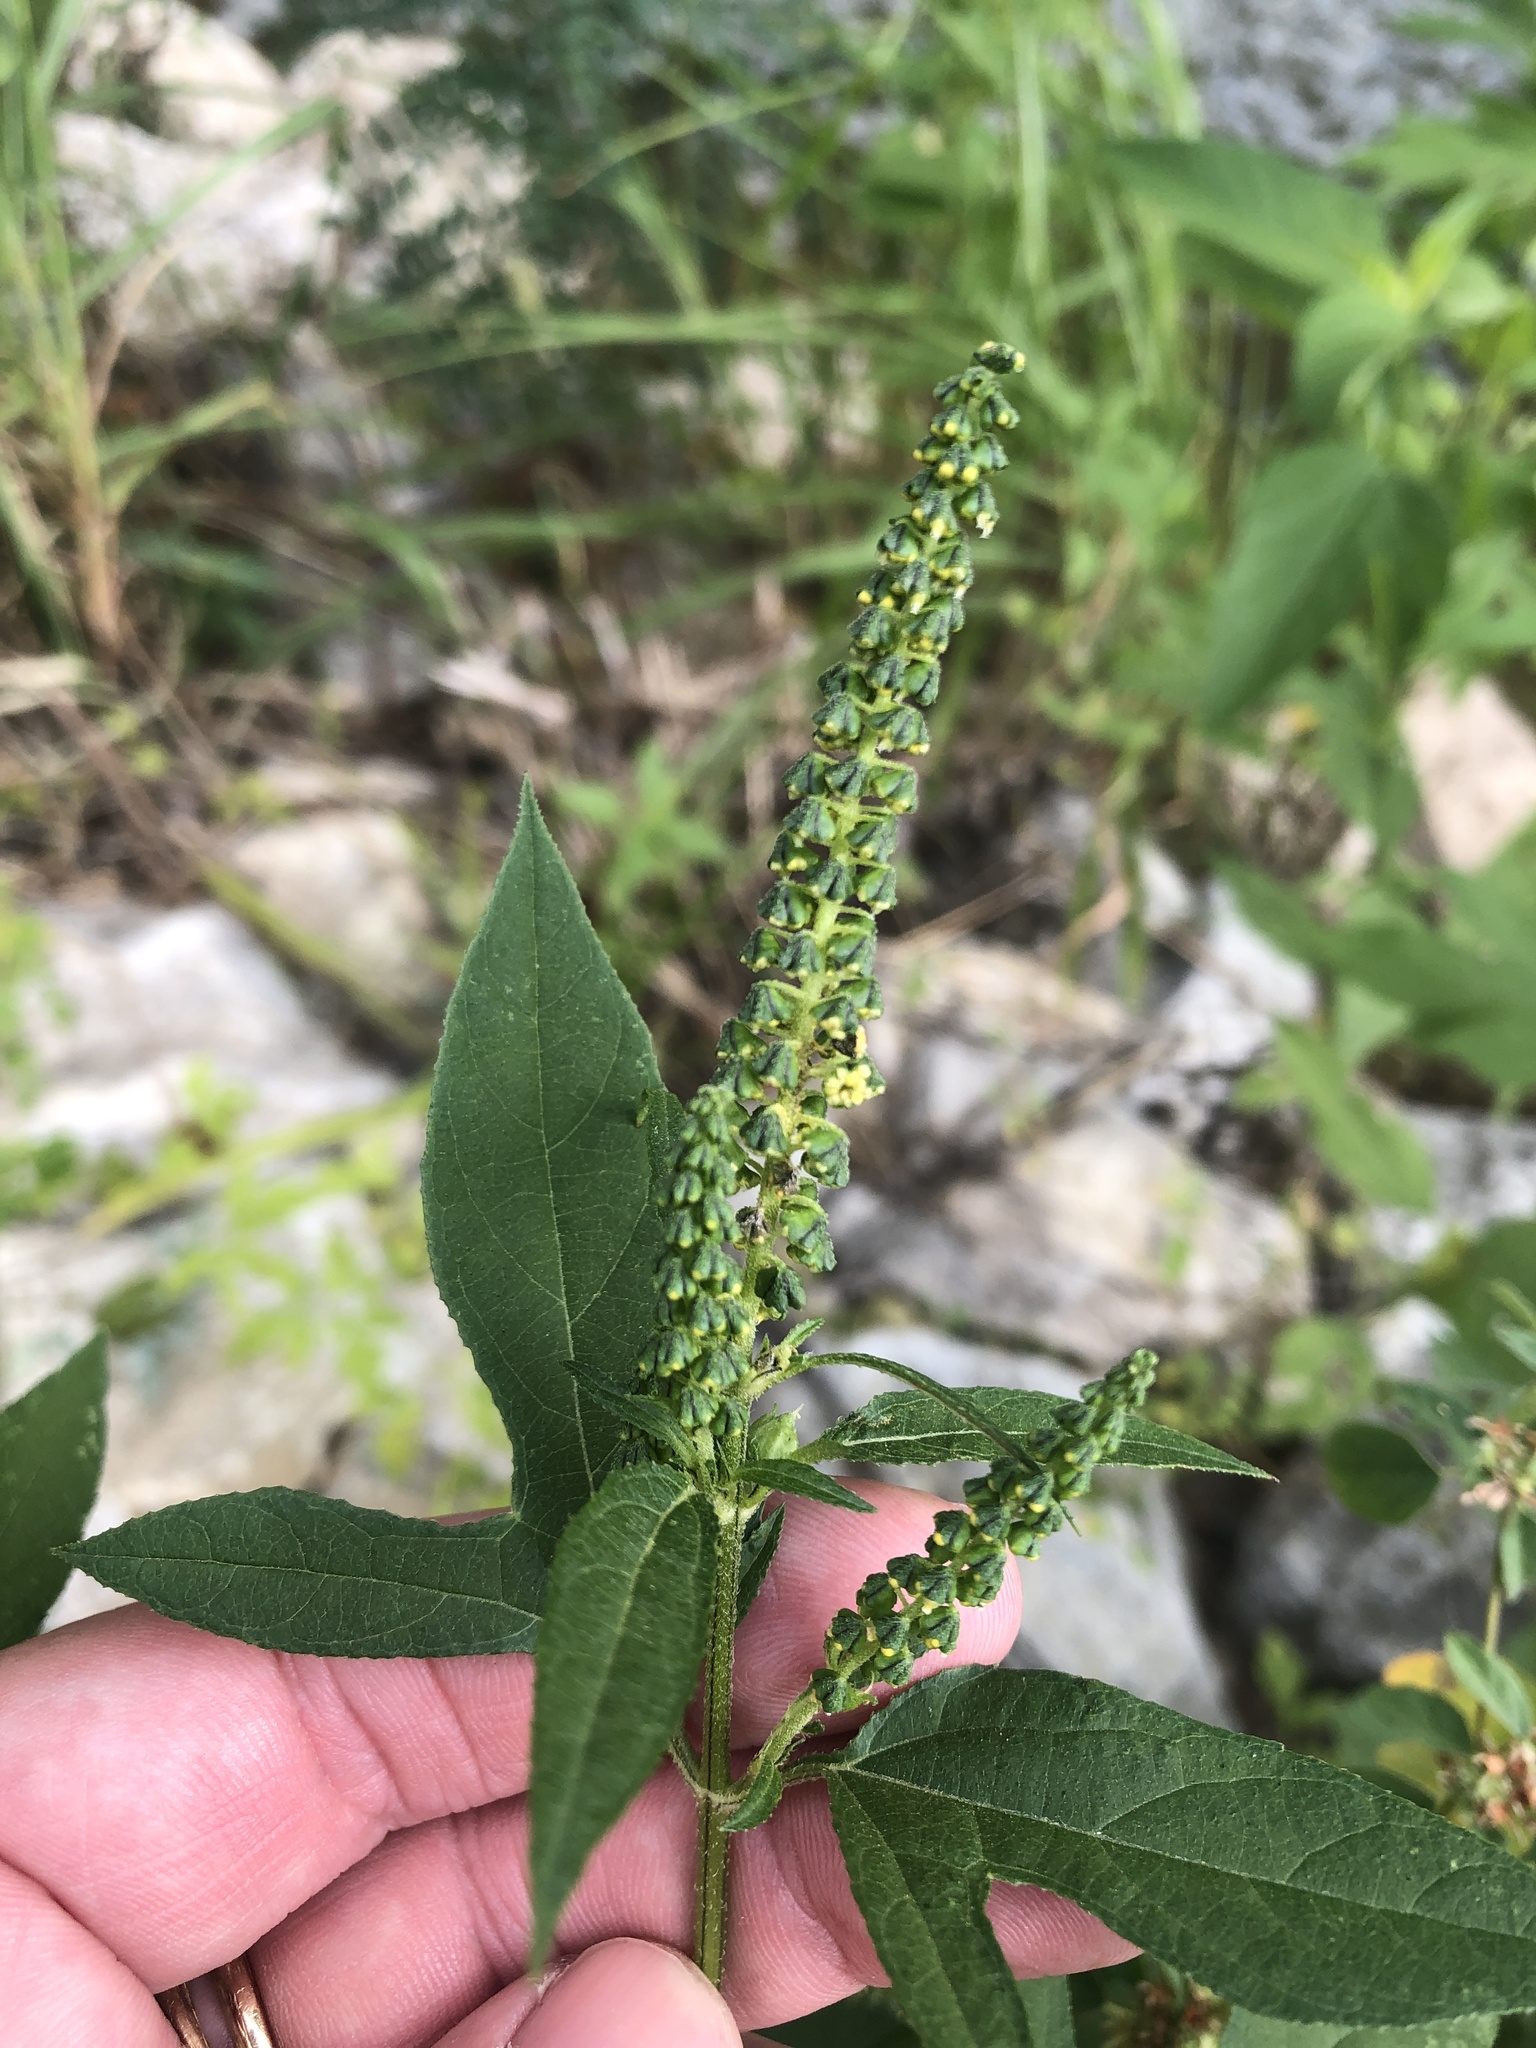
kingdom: Plantae
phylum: Tracheophyta
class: Magnoliopsida
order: Asterales
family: Asteraceae
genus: Ambrosia
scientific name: Ambrosia trifida
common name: Giant ragweed
